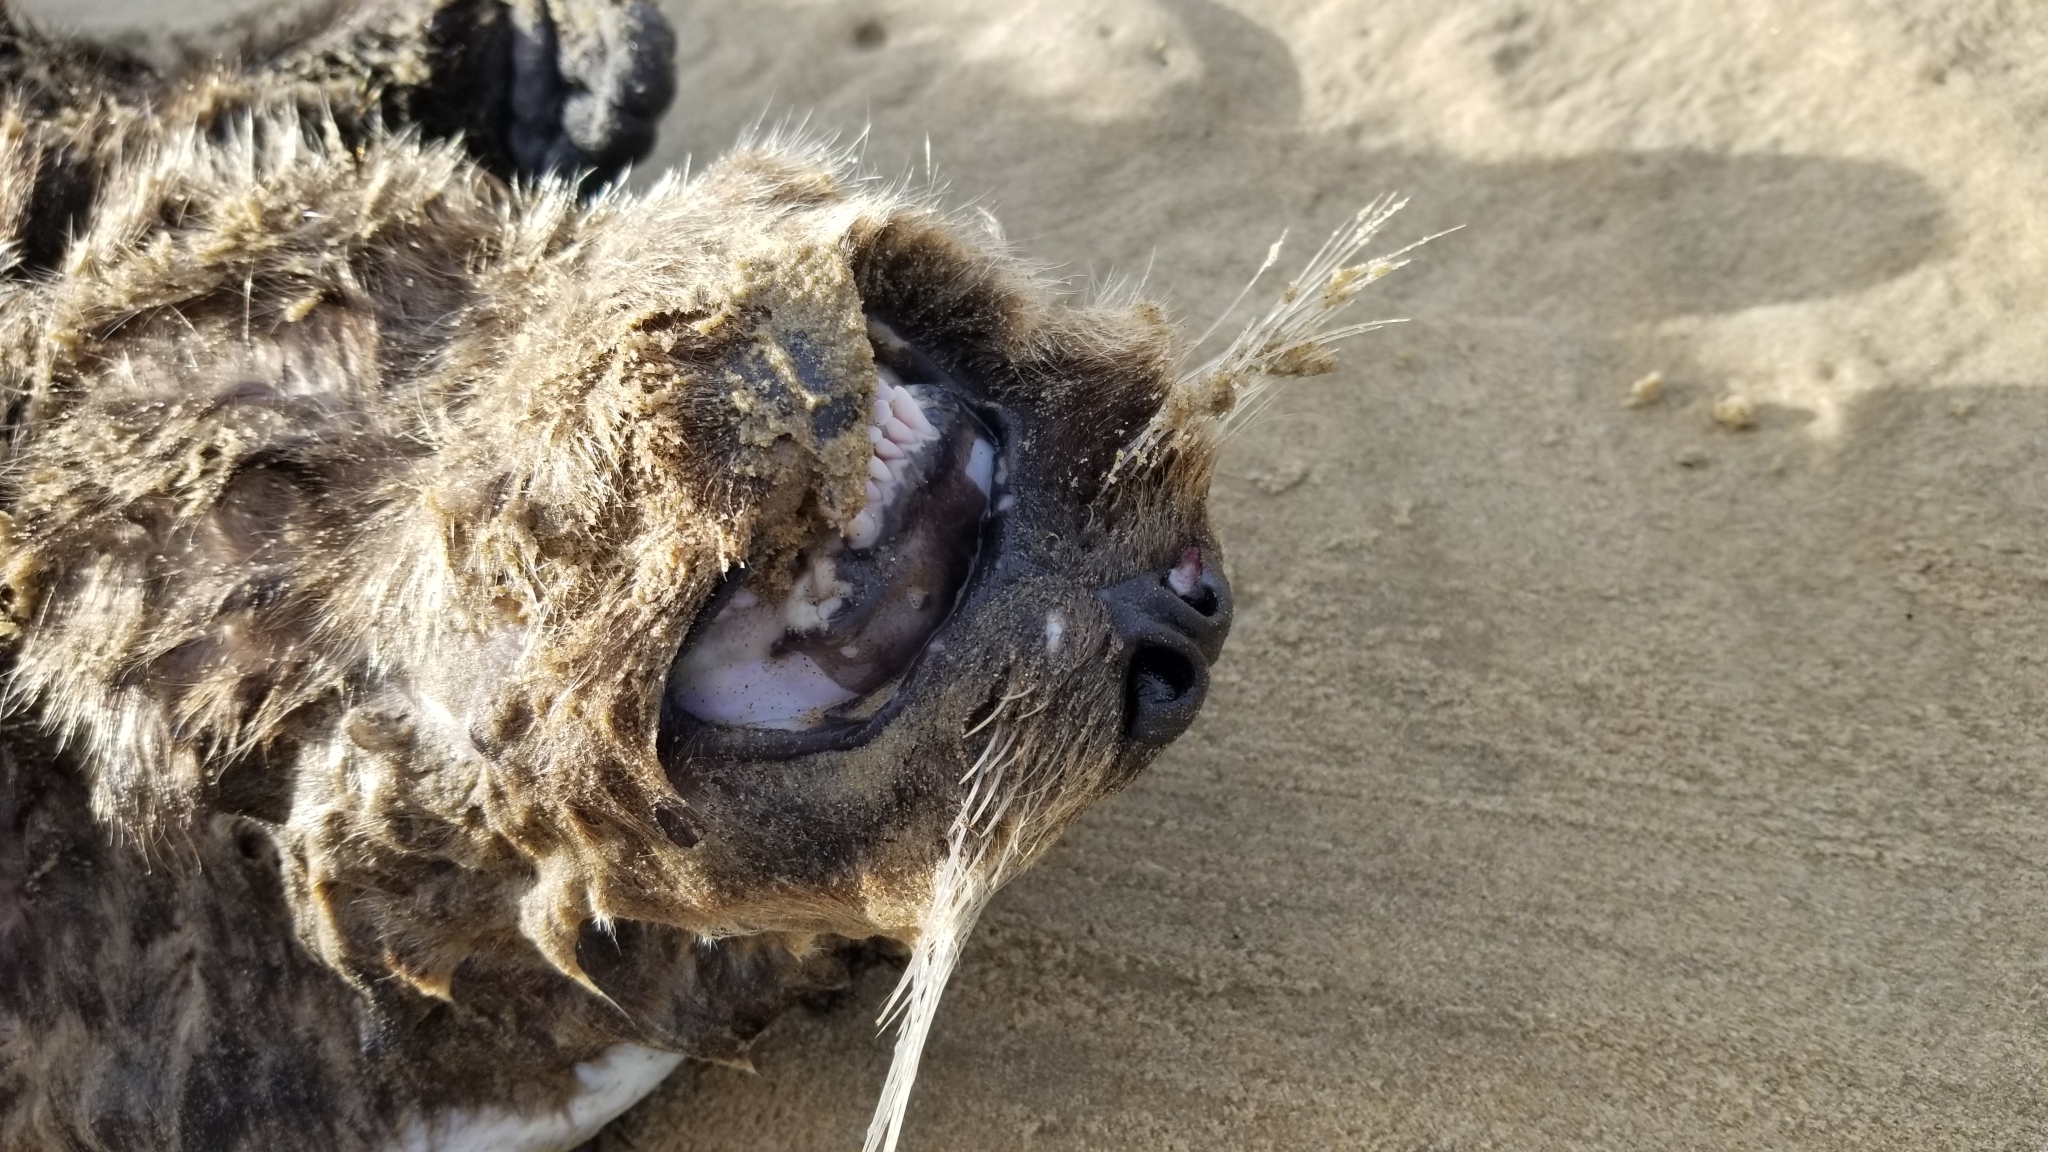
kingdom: Animalia
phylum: Chordata
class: Mammalia
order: Carnivora
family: Mustelidae
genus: Enhydra
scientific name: Enhydra lutris
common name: Sea otter
